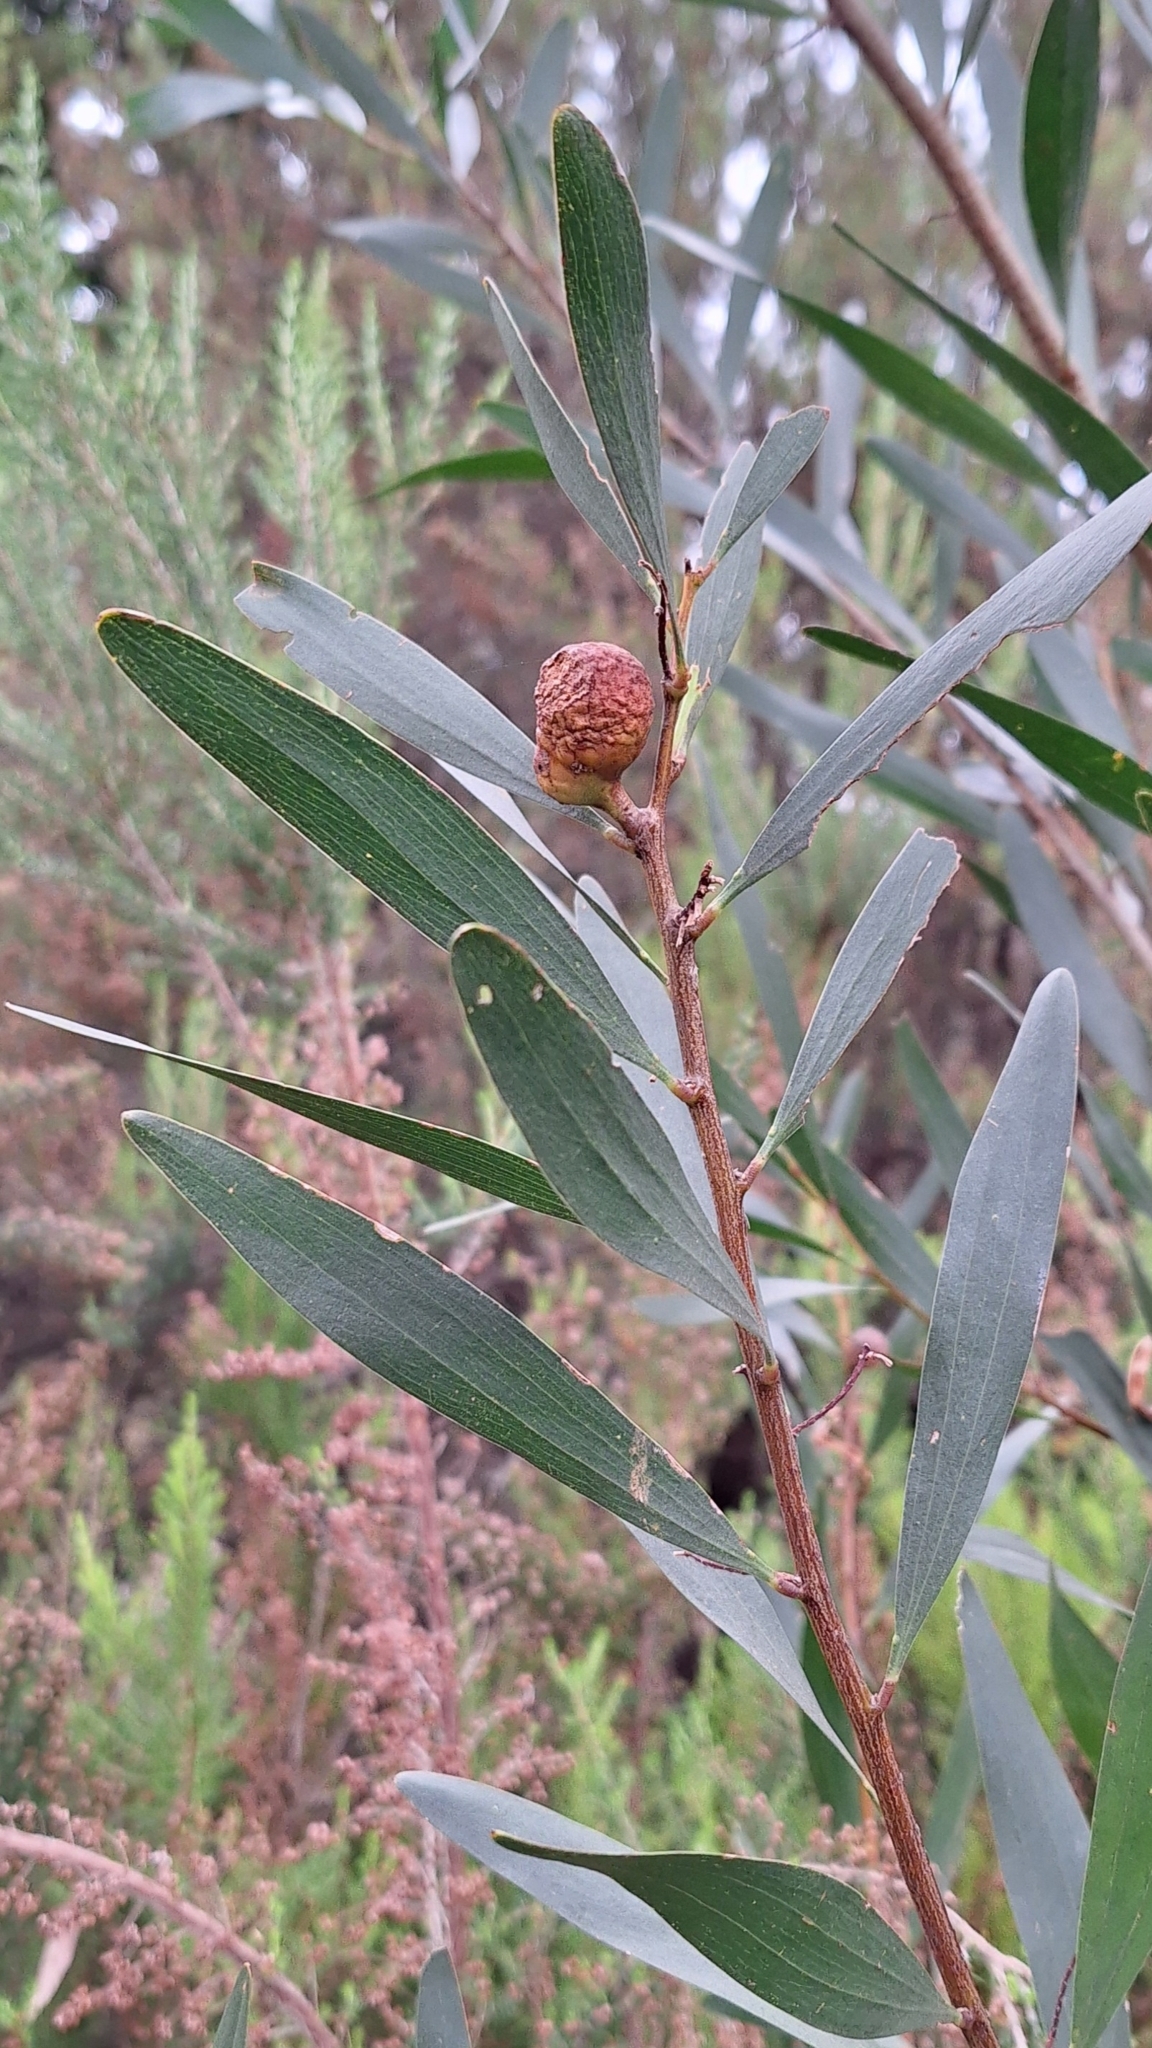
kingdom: Plantae
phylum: Tracheophyta
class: Magnoliopsida
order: Fabales
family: Fabaceae
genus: Acacia
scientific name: Acacia longifolia
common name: Sydney golden wattle
